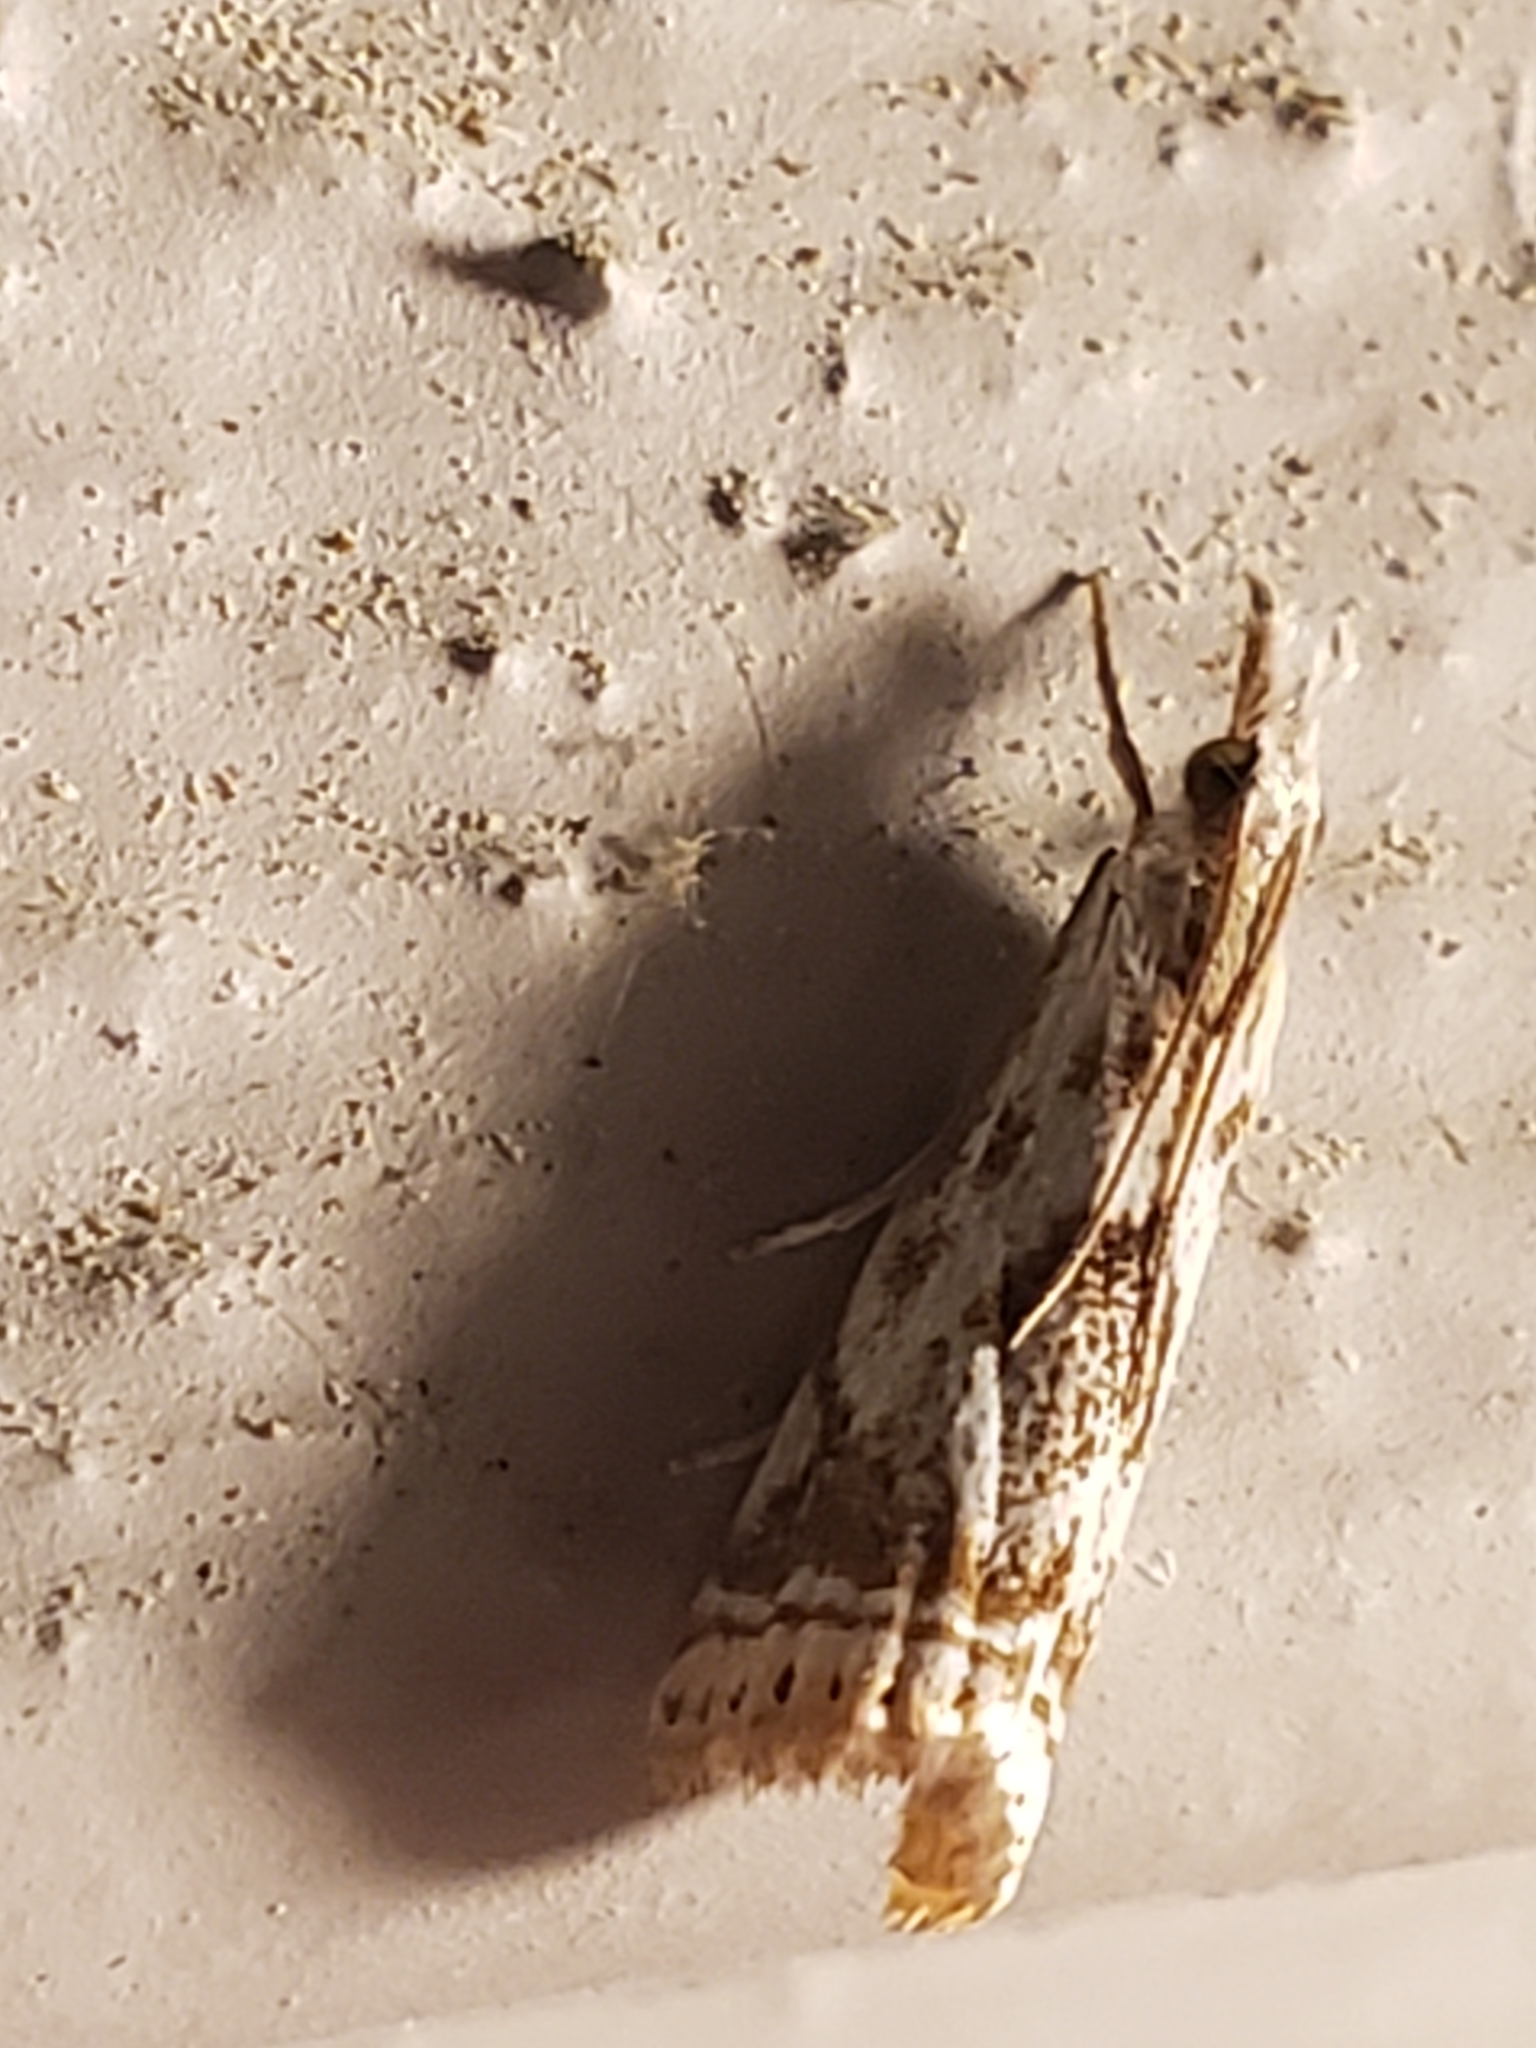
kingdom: Animalia
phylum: Arthropoda
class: Insecta
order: Lepidoptera
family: Crambidae
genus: Microcrambus
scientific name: Microcrambus elegans
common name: Elegant grass-veneer
